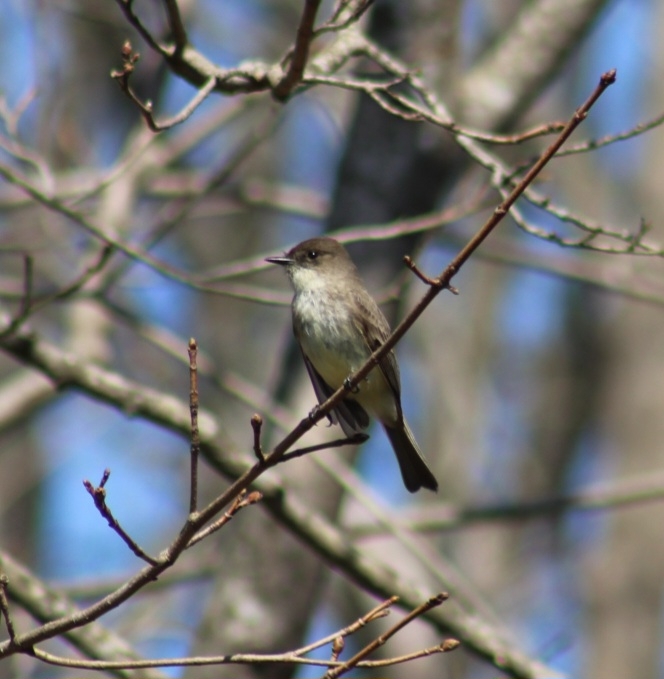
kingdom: Animalia
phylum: Chordata
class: Aves
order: Passeriformes
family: Tyrannidae
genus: Sayornis
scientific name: Sayornis phoebe
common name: Eastern phoebe
